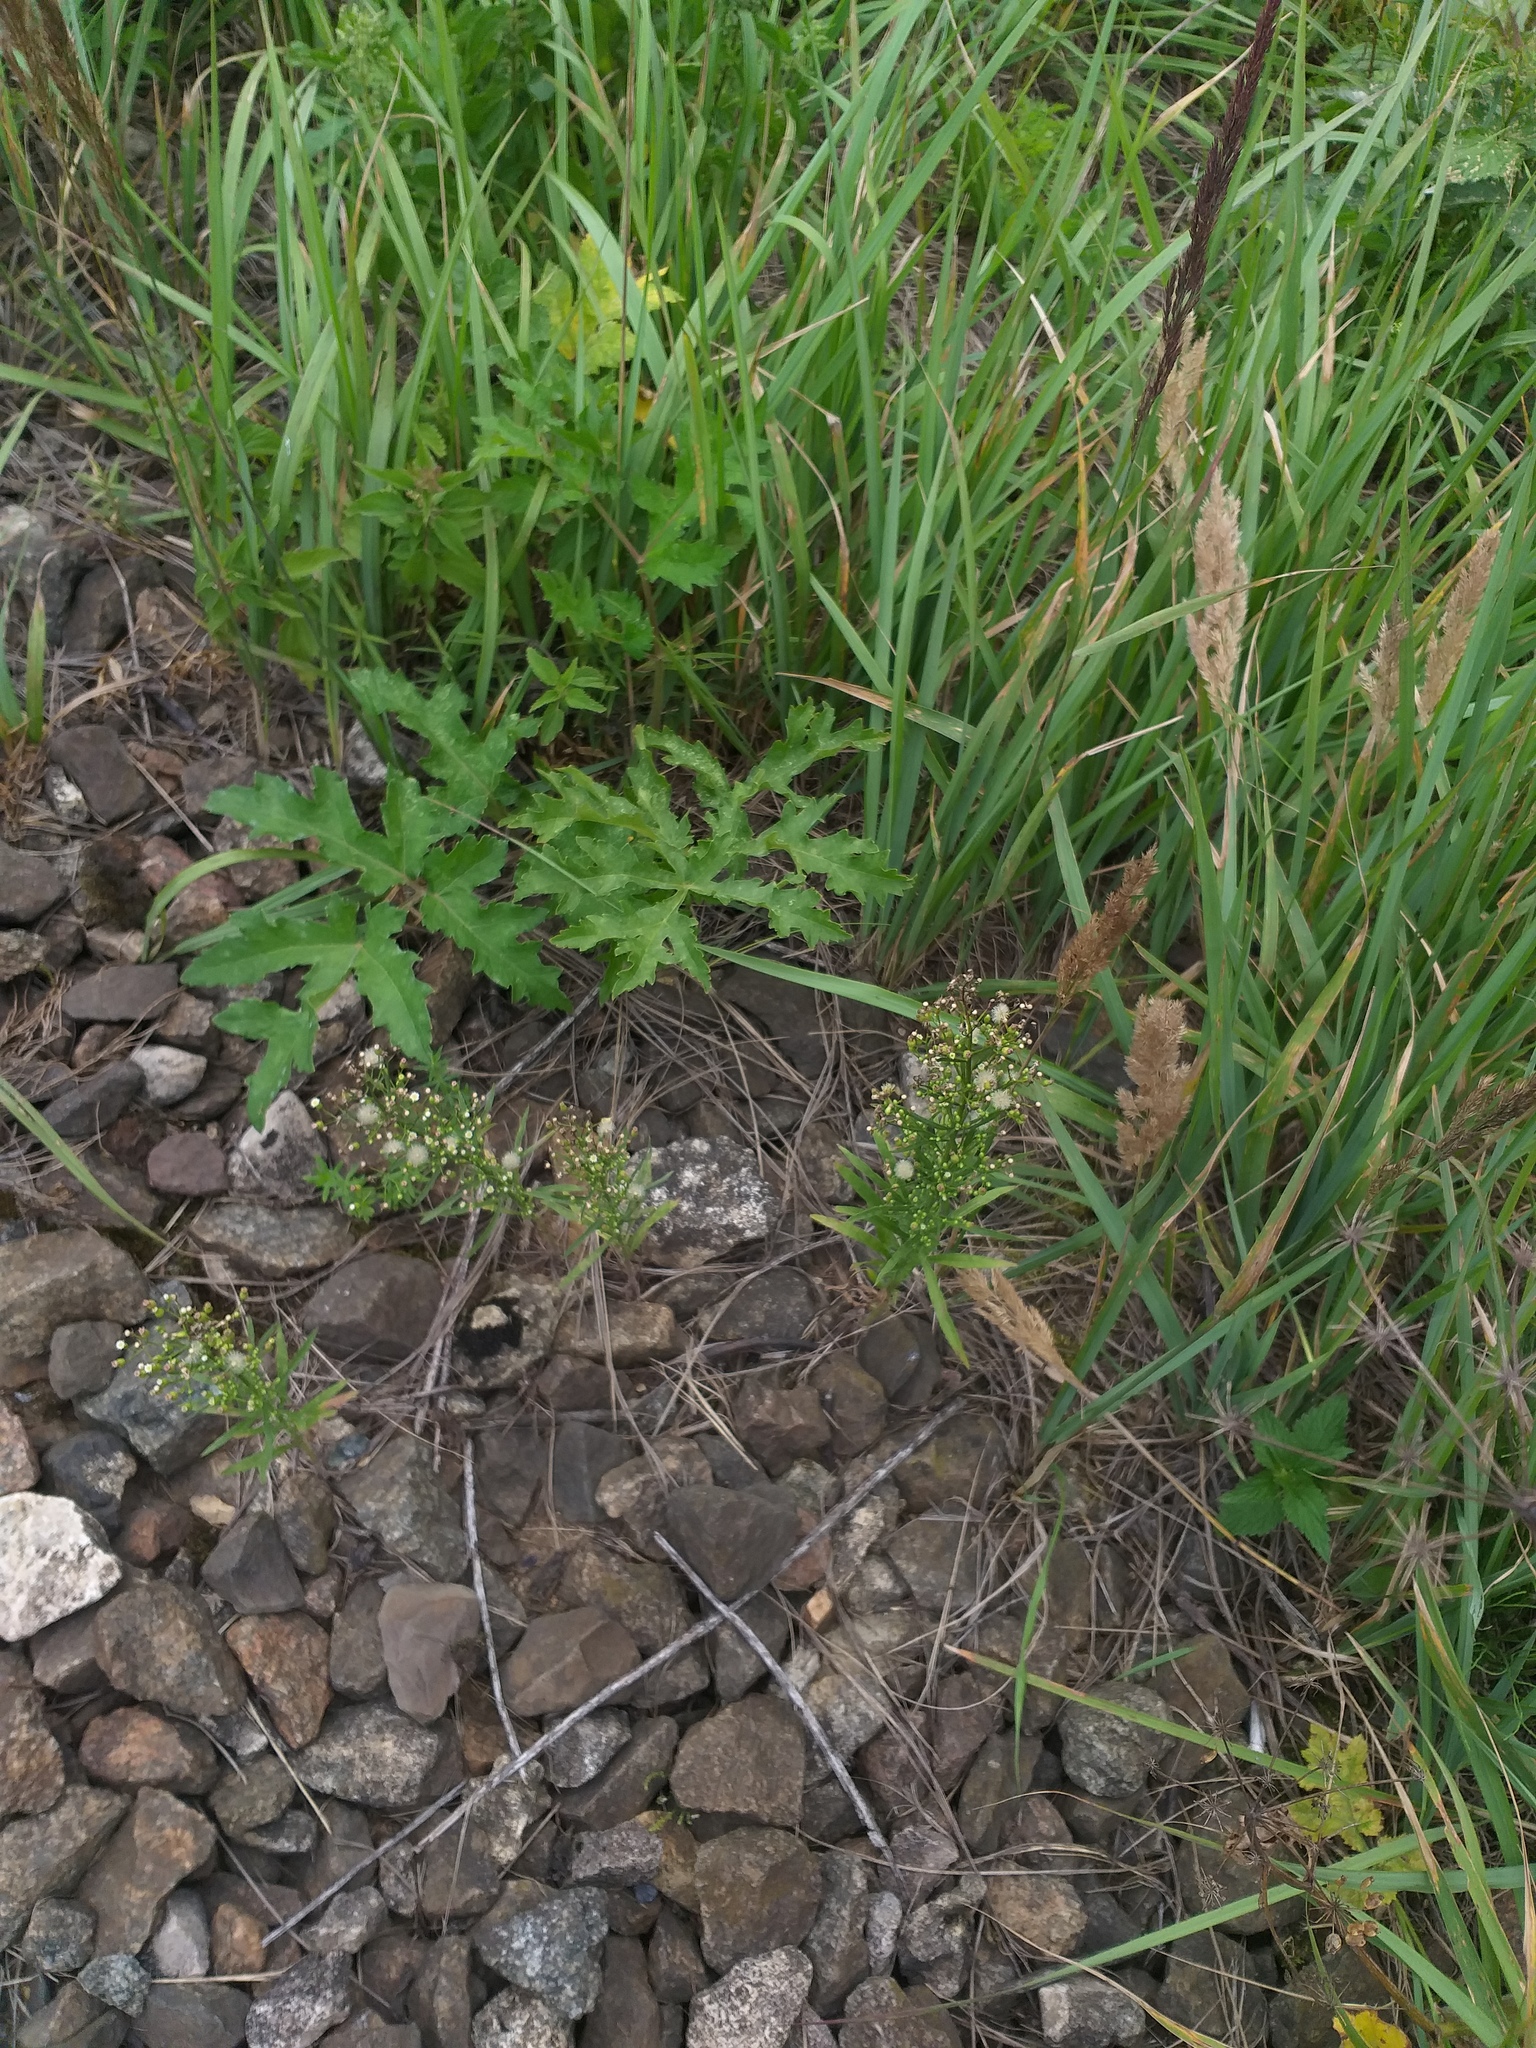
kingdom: Plantae
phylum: Tracheophyta
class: Magnoliopsida
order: Asterales
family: Asteraceae
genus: Erigeron
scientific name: Erigeron canadensis
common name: Canadian fleabane
